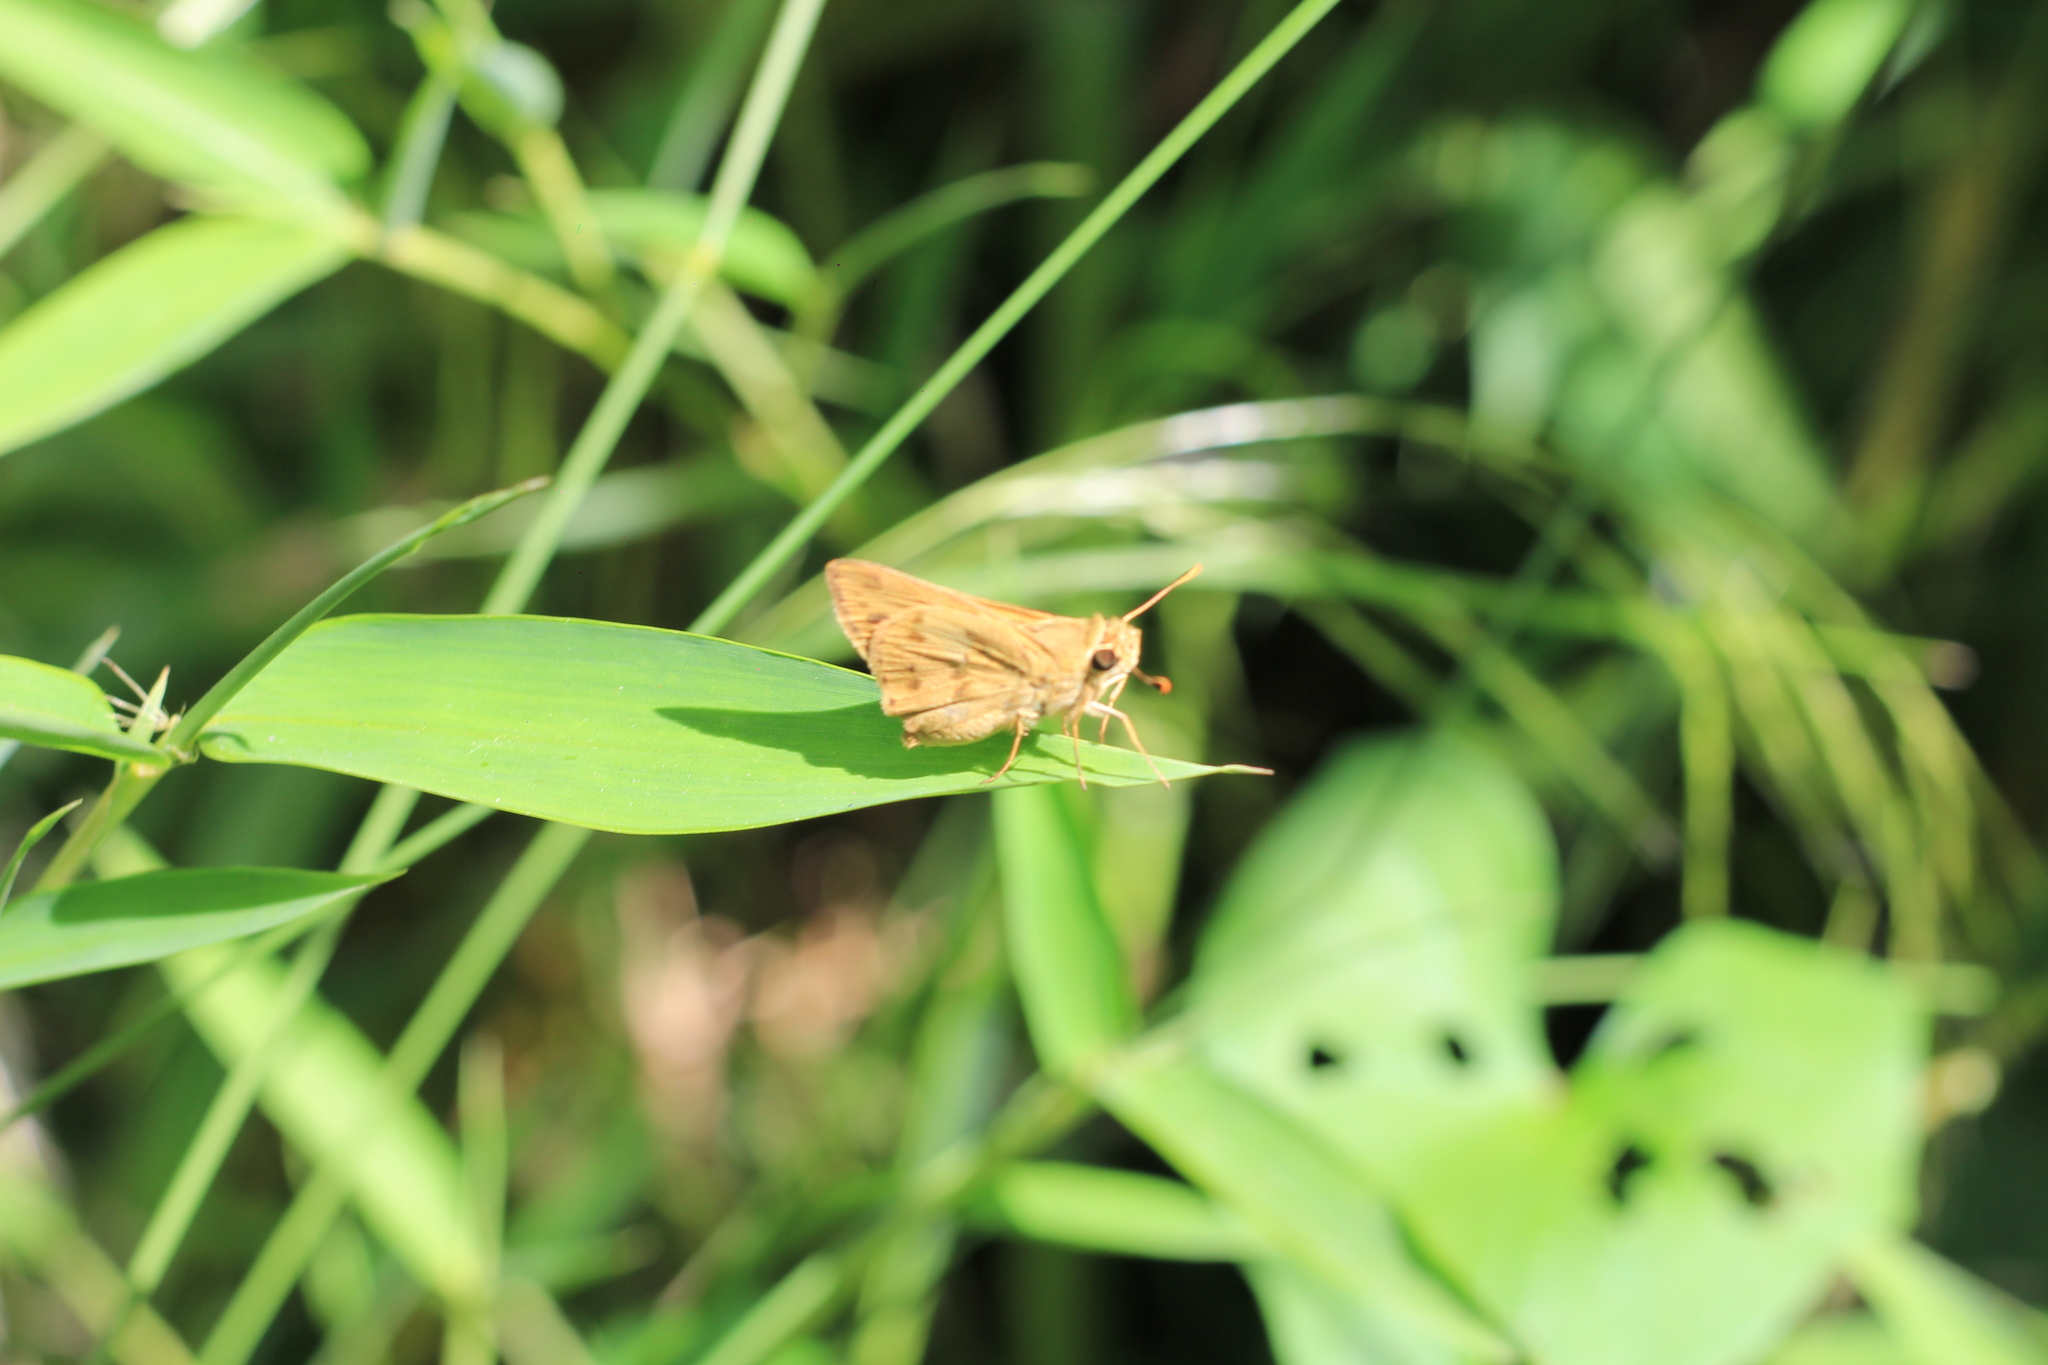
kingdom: Animalia
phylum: Arthropoda
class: Insecta
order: Lepidoptera
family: Hesperiidae
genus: Polites
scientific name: Polites vibex
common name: Whirlabout
